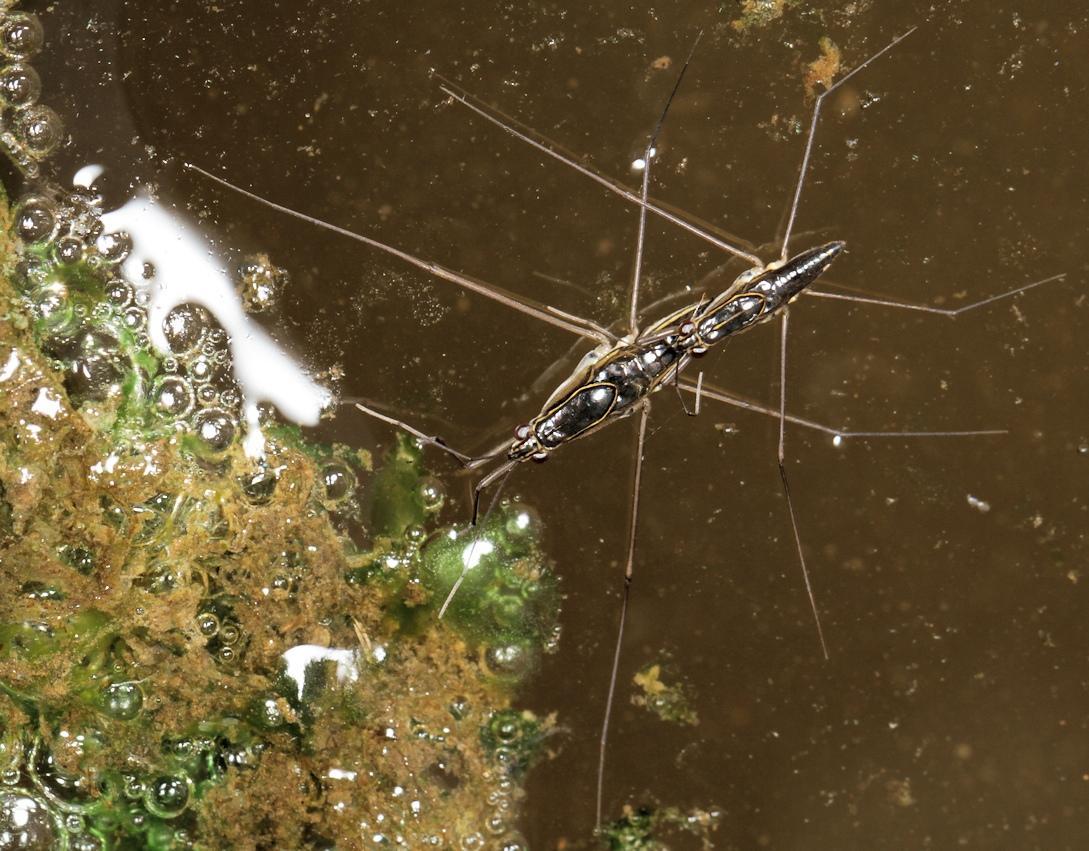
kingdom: Animalia
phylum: Arthropoda
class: Insecta
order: Hemiptera
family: Gerridae
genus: Limnogonus
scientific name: Limnogonus
